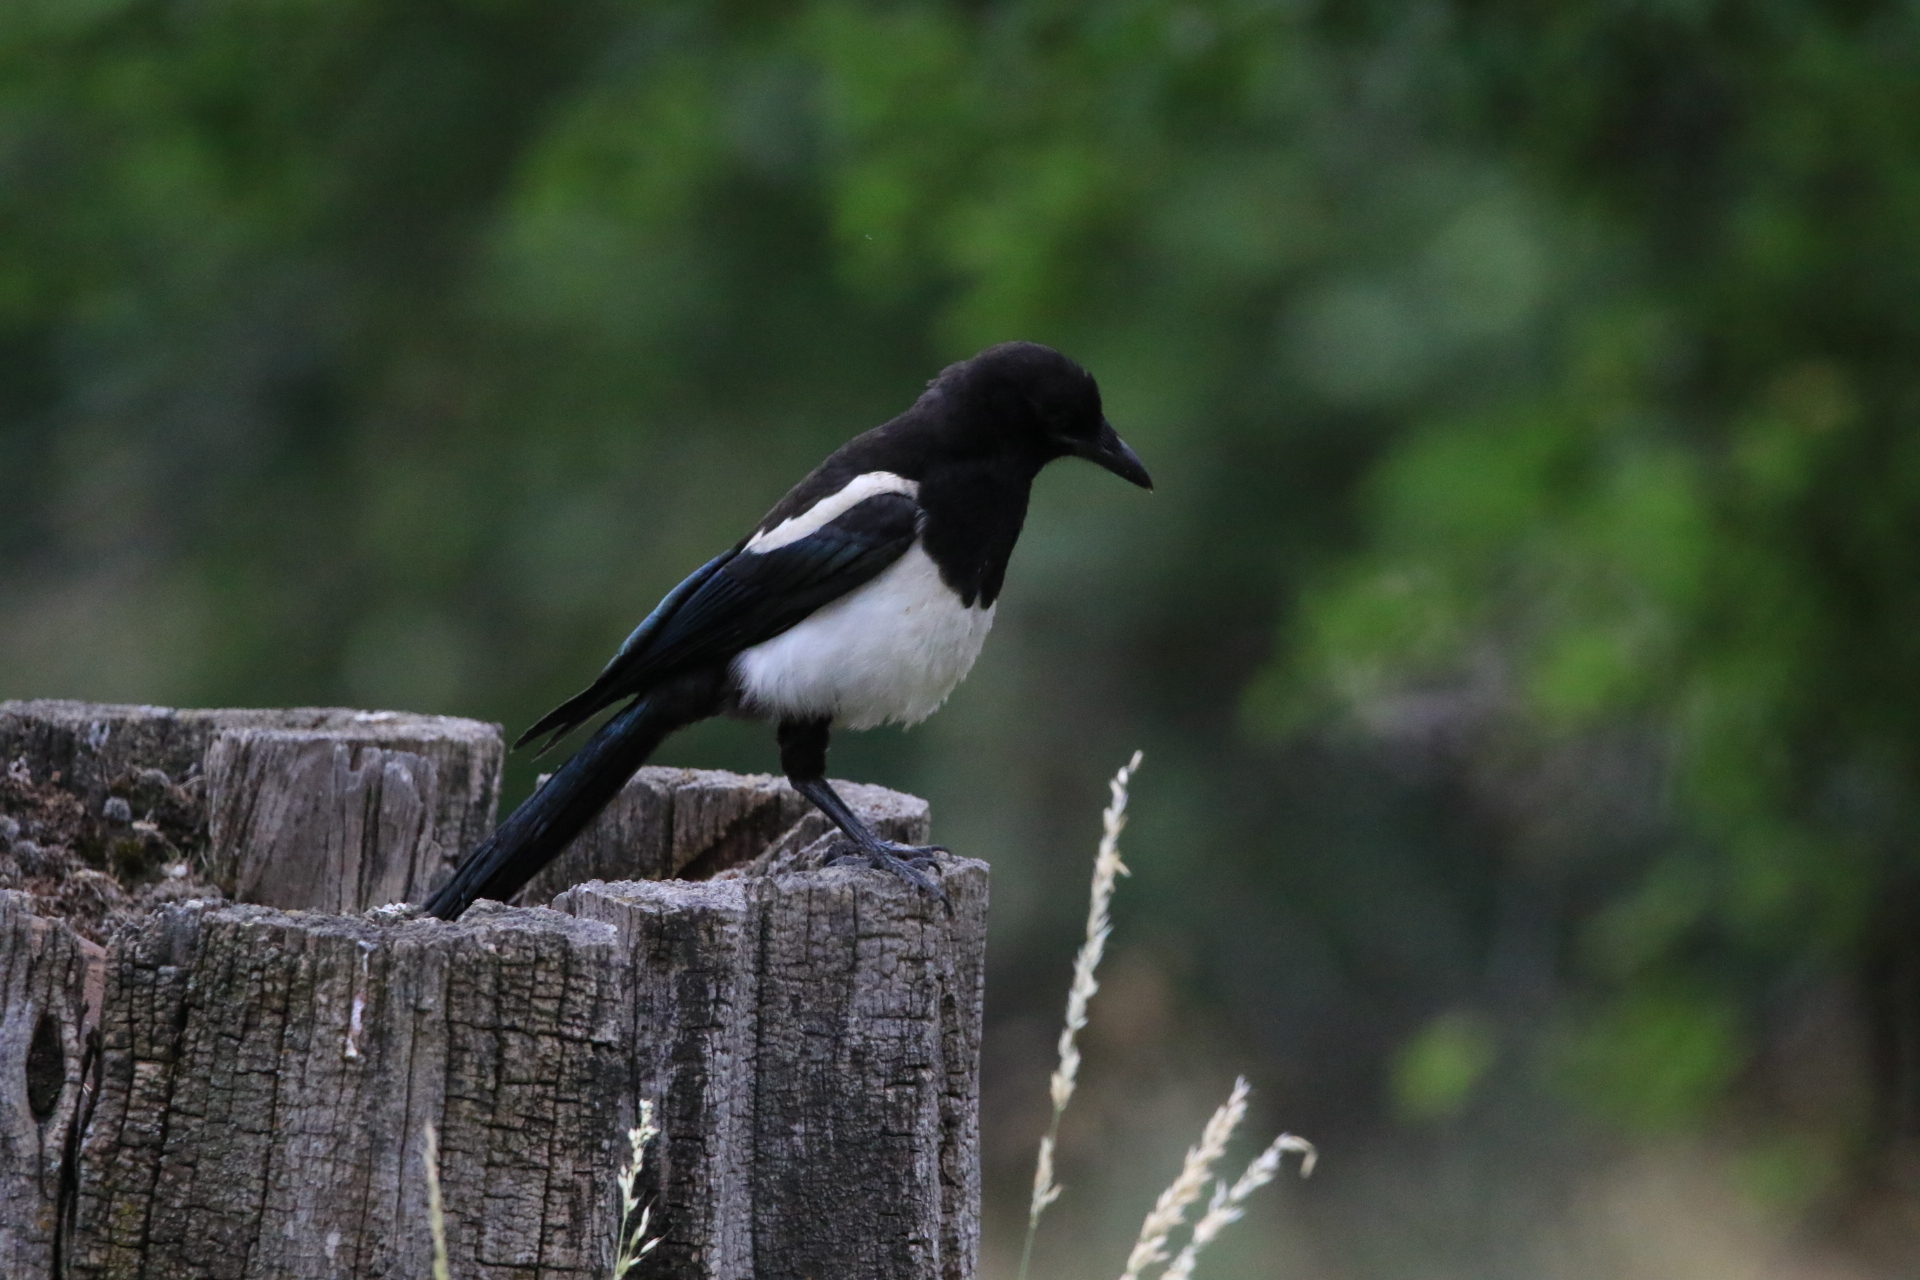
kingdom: Animalia
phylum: Chordata
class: Aves
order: Passeriformes
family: Corvidae
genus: Pica
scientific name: Pica hudsonia
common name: Black-billed magpie
